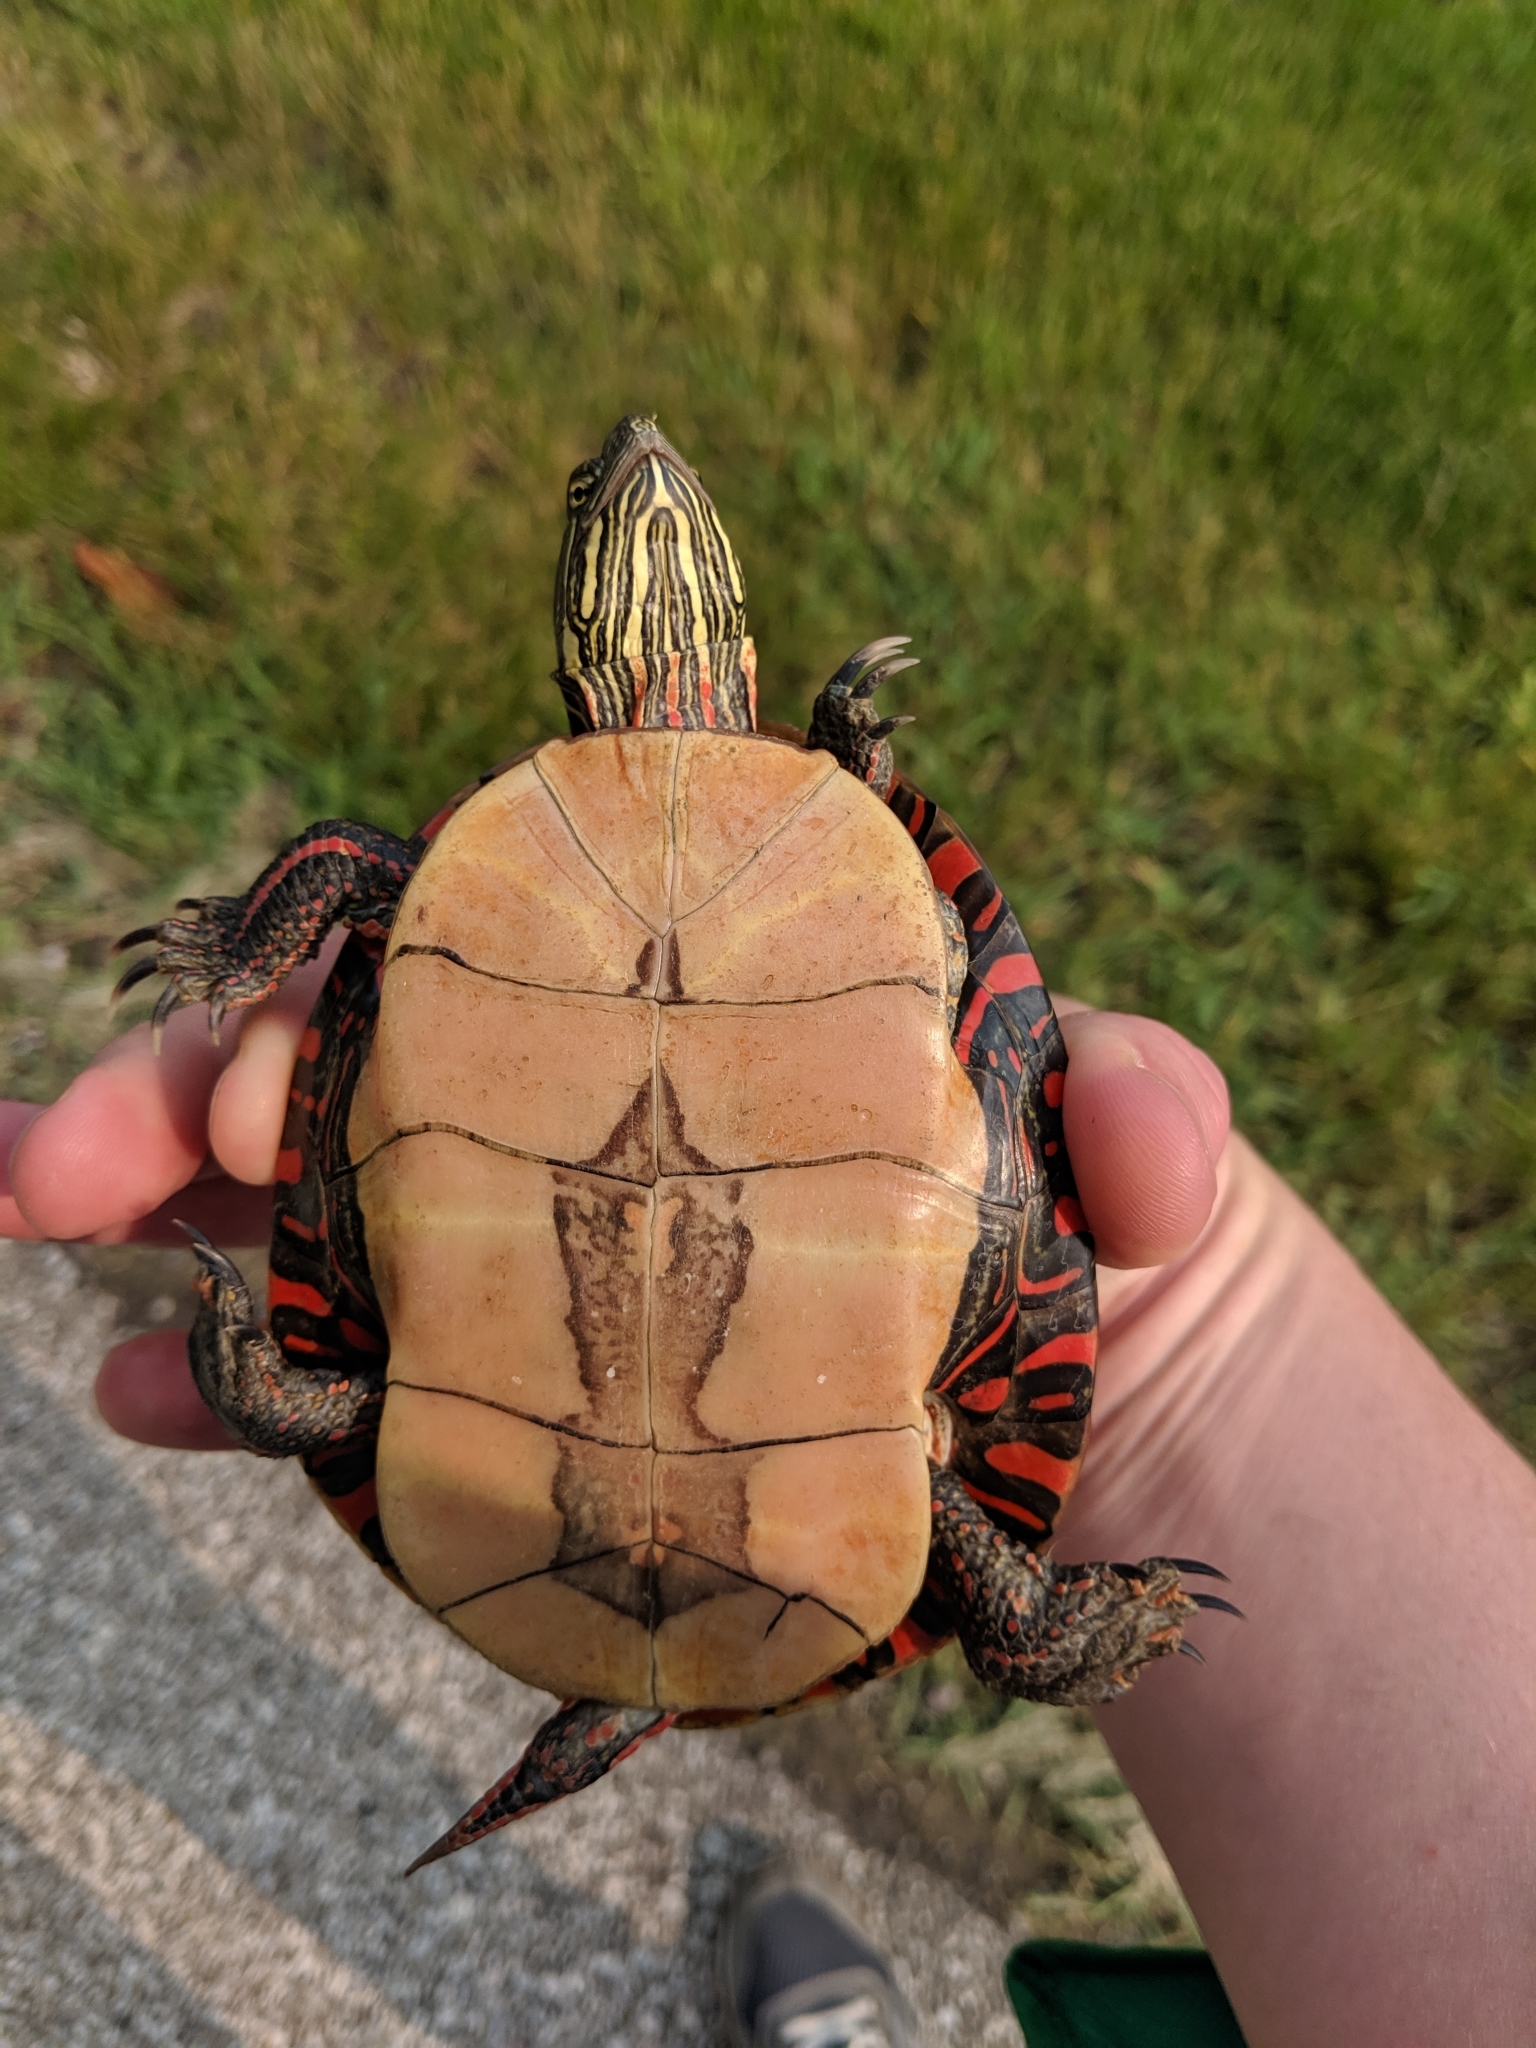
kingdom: Animalia
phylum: Chordata
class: Testudines
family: Emydidae
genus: Chrysemys
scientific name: Chrysemys picta
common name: Painted turtle
